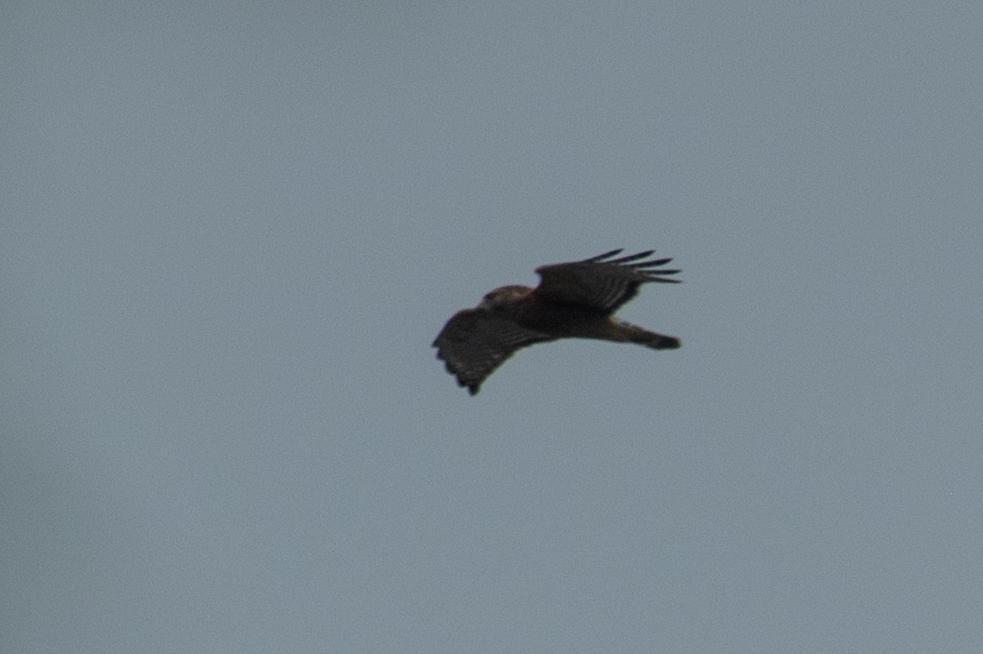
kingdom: Animalia
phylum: Chordata
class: Aves
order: Accipitriformes
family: Accipitridae
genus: Buteo
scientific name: Buteo lineatus
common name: Red-shouldered hawk
